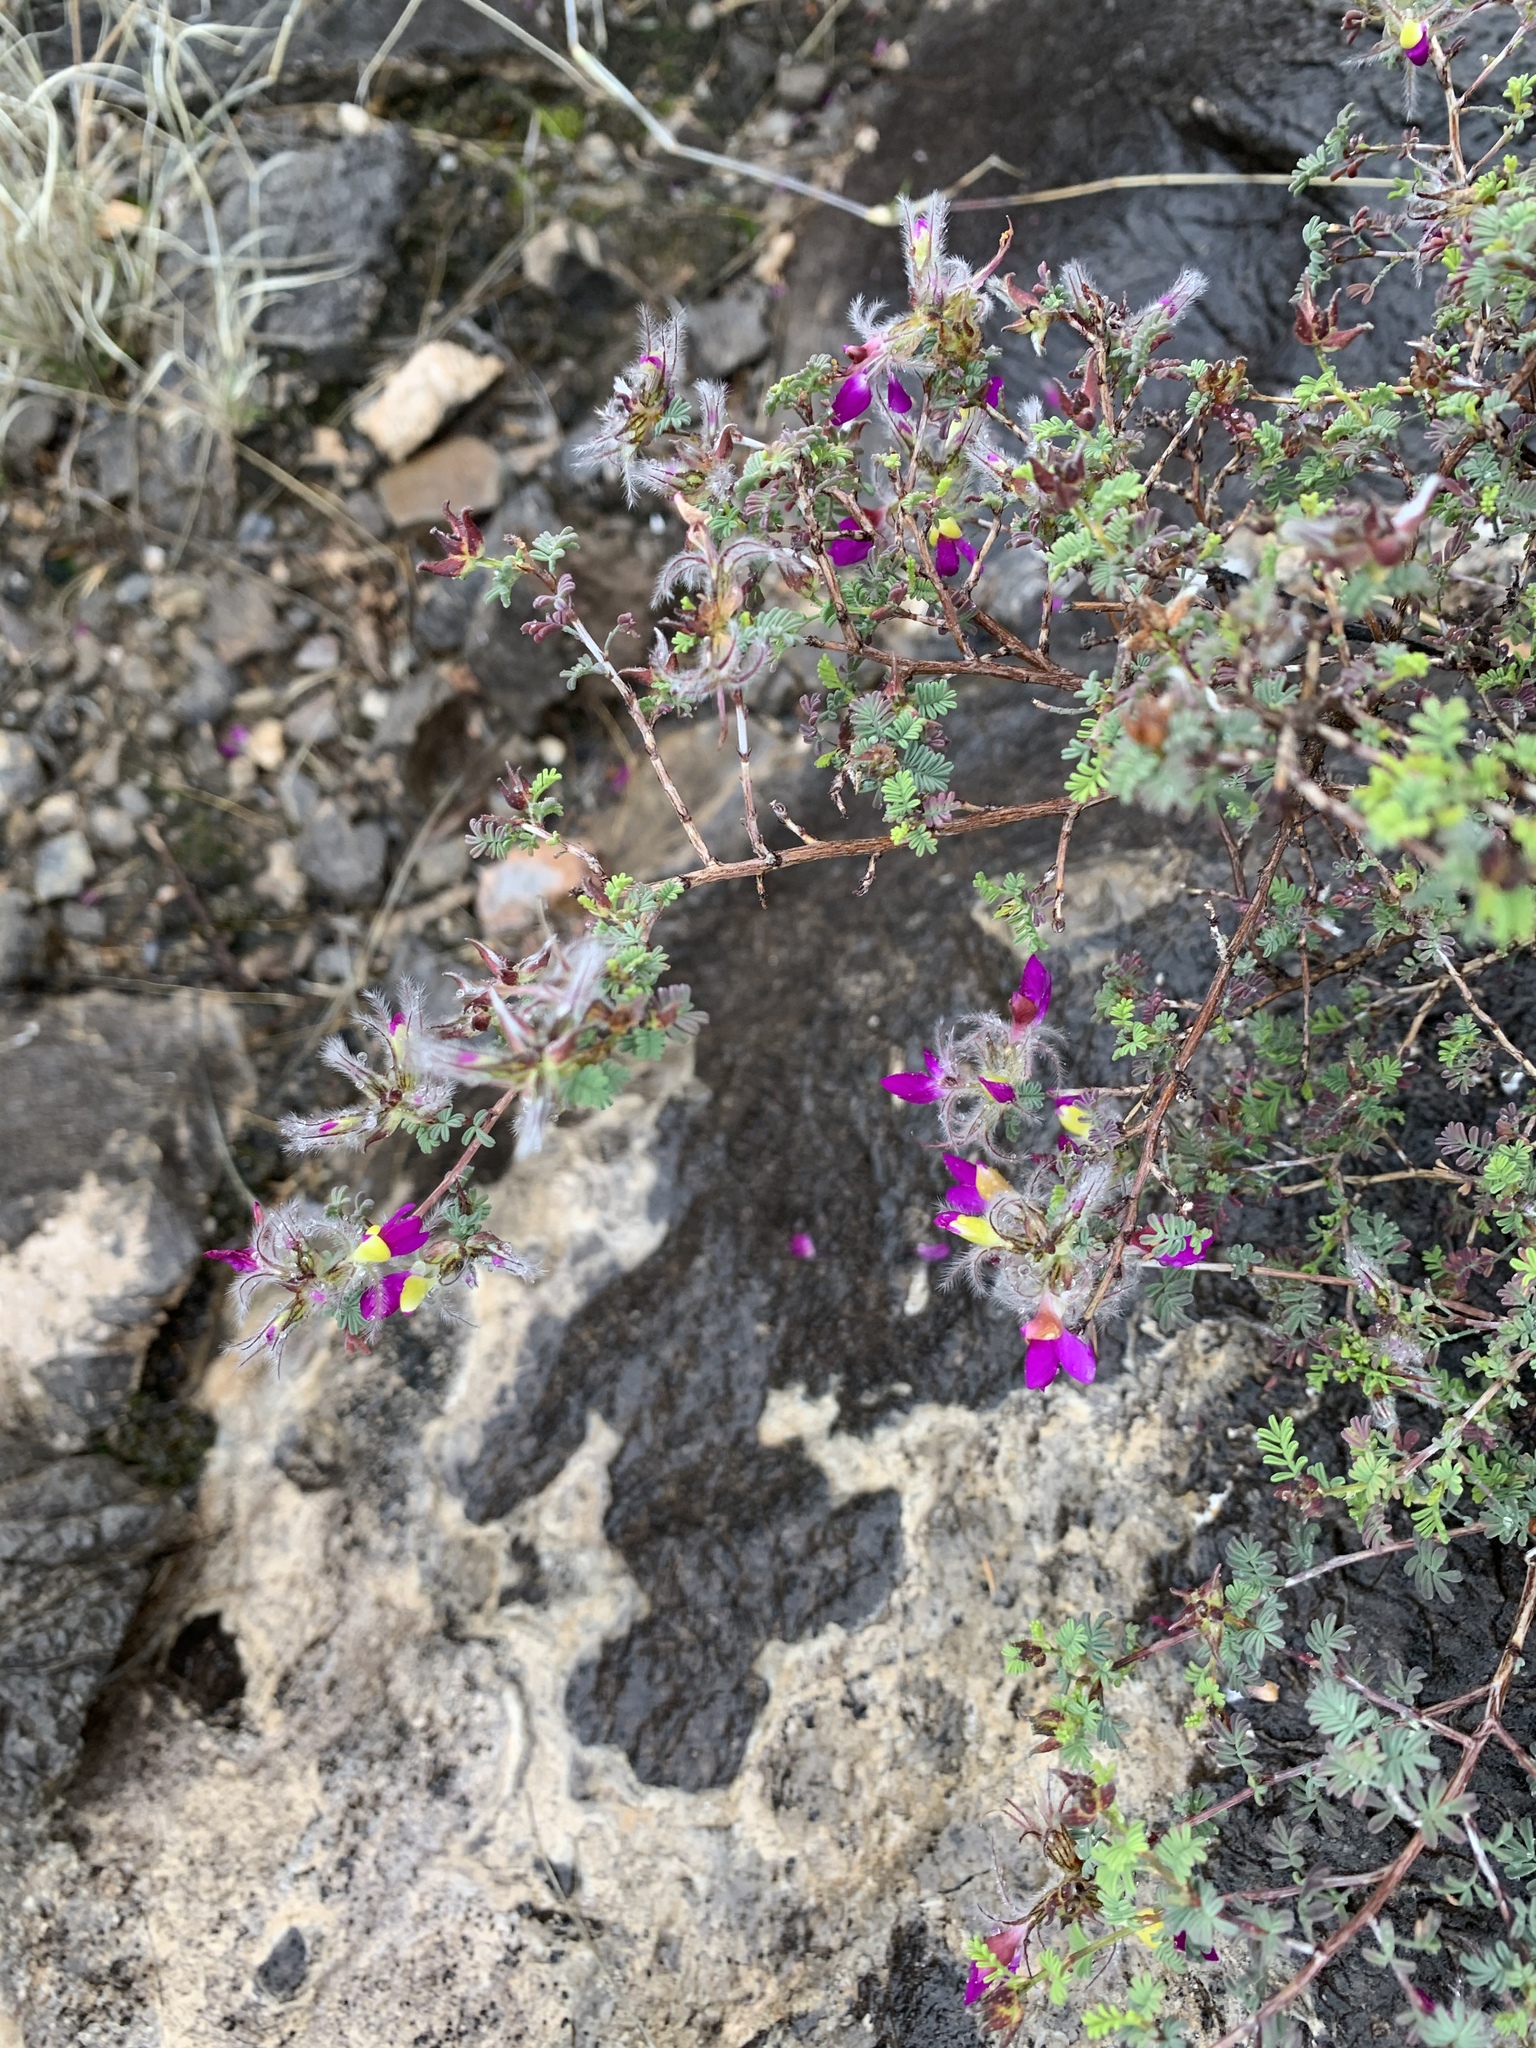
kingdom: Plantae
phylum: Tracheophyta
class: Magnoliopsida
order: Fabales
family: Fabaceae
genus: Dalea
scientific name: Dalea formosa
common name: Feather-plume dalea
